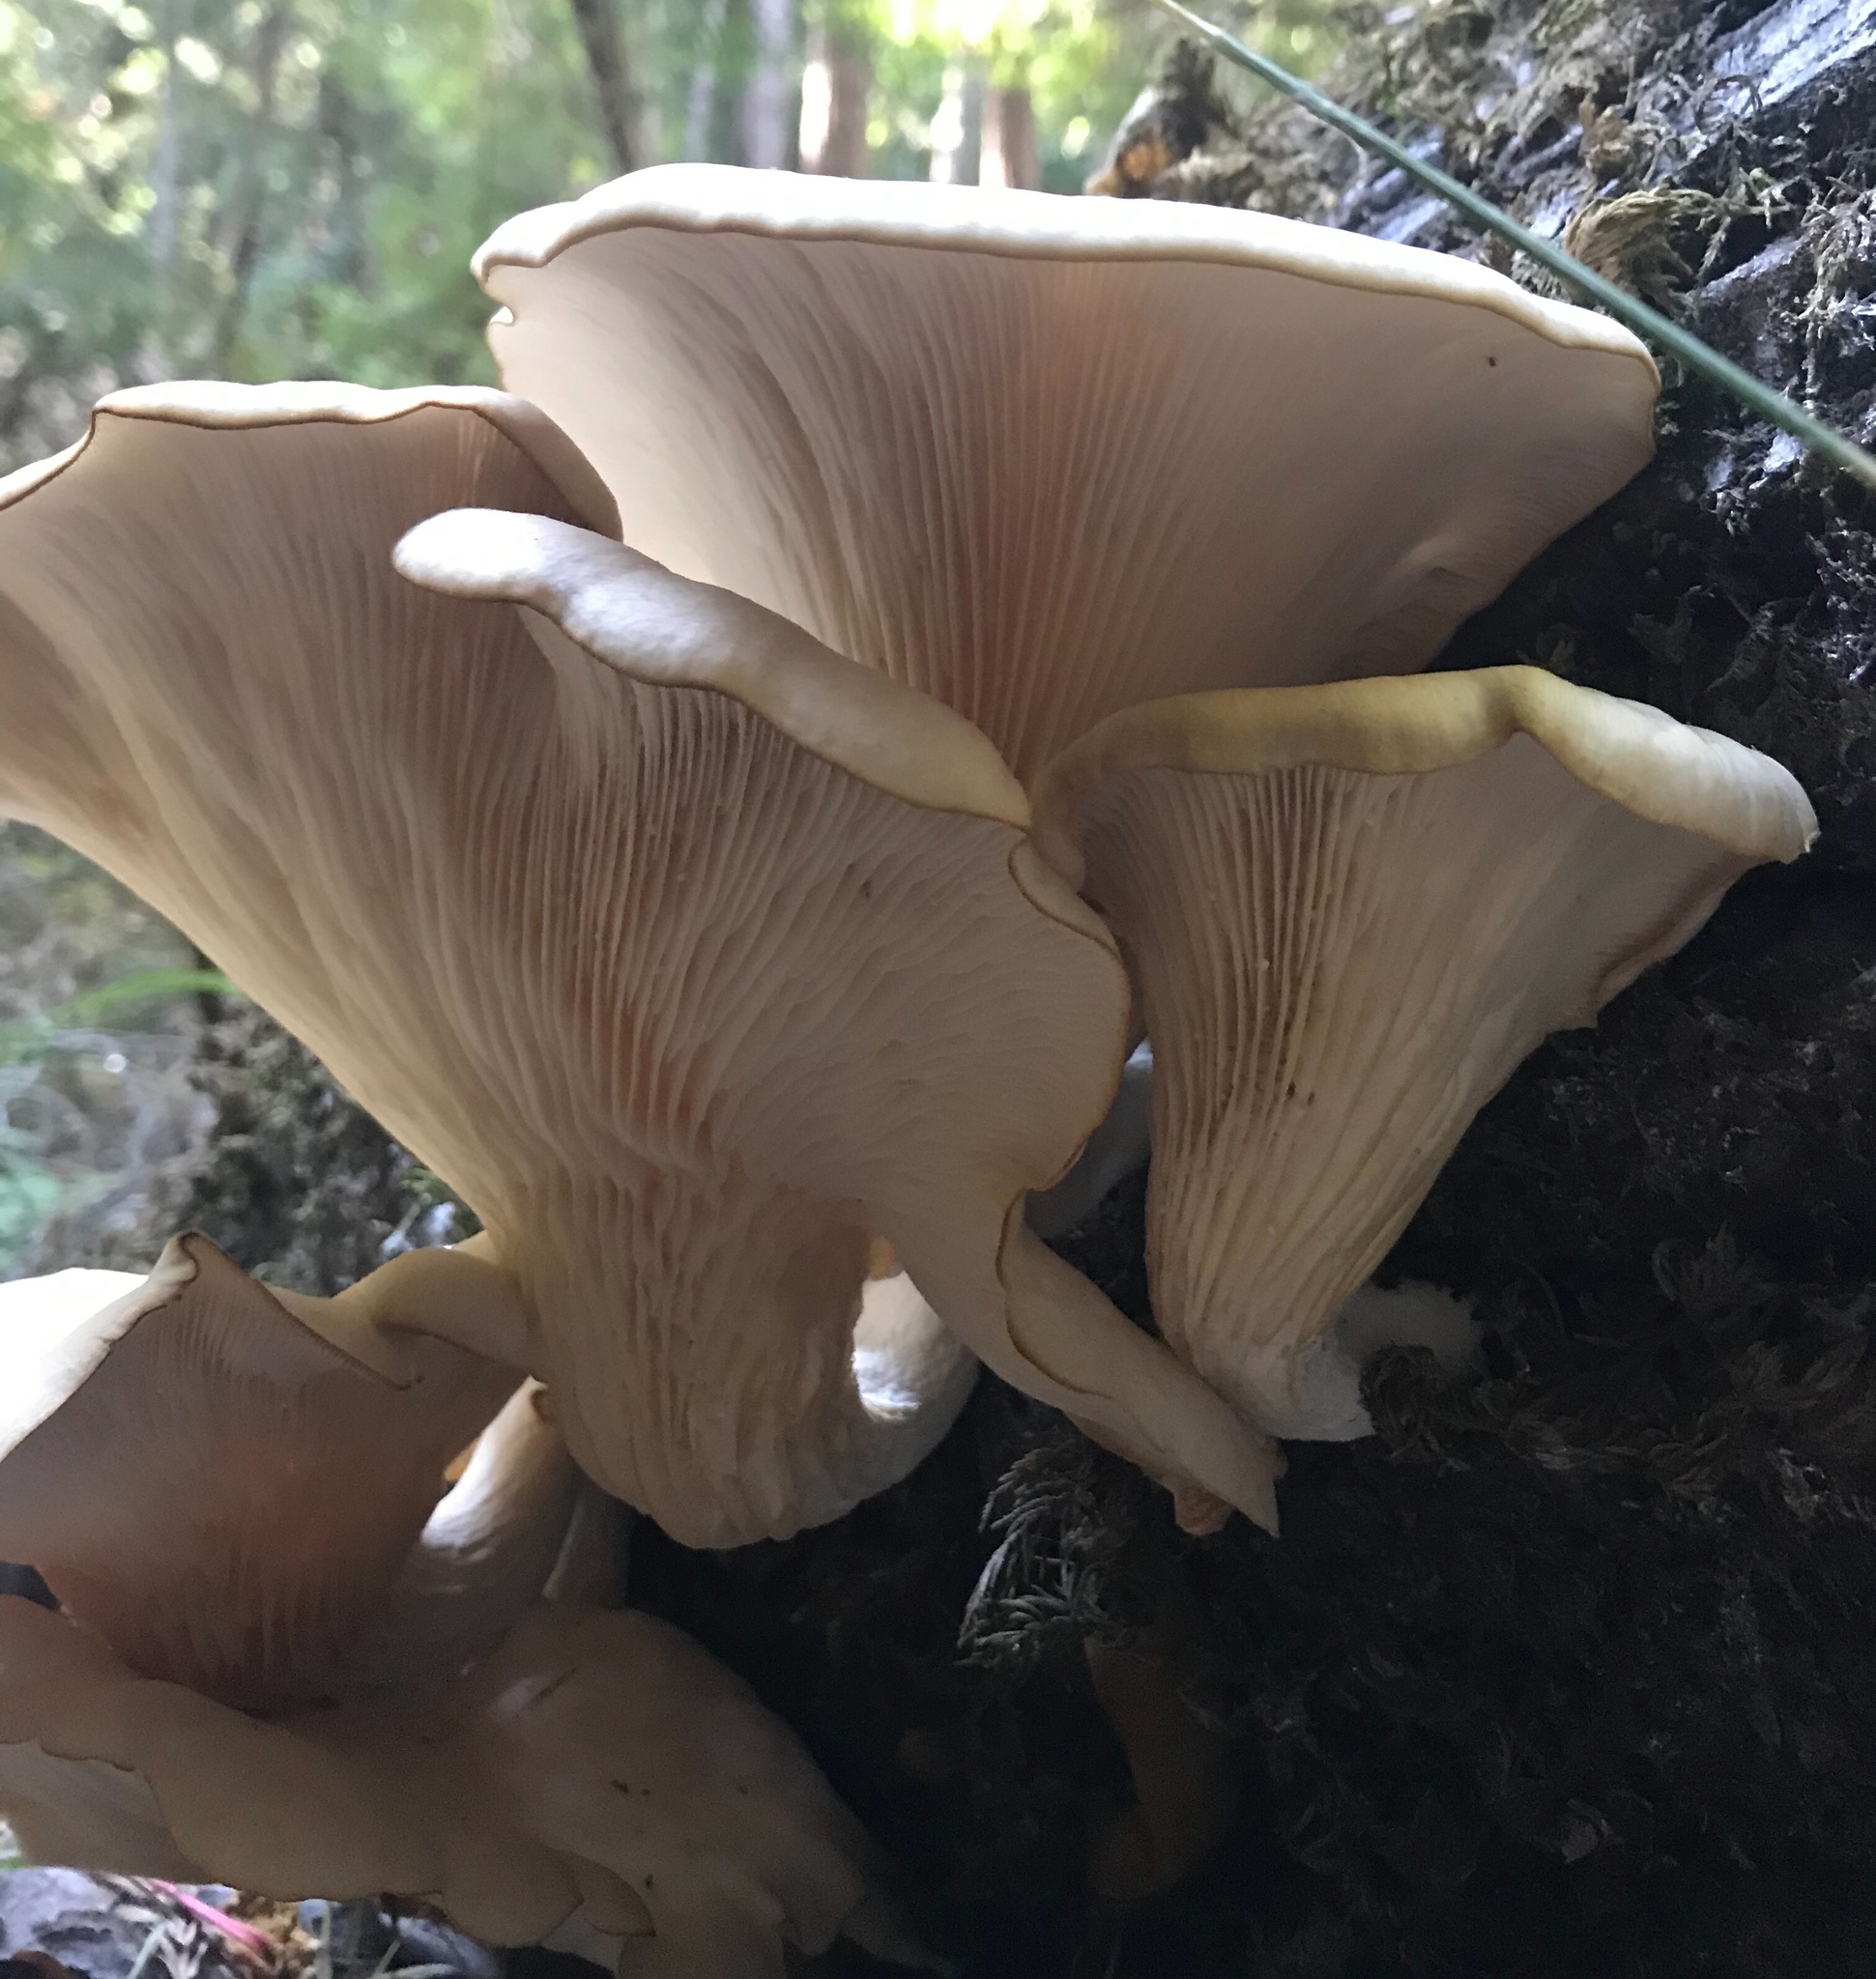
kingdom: Fungi
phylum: Basidiomycota
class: Agaricomycetes
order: Agaricales
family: Pleurotaceae
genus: Pleurotus
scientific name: Pleurotus ostreatus
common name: Oyster mushroom
